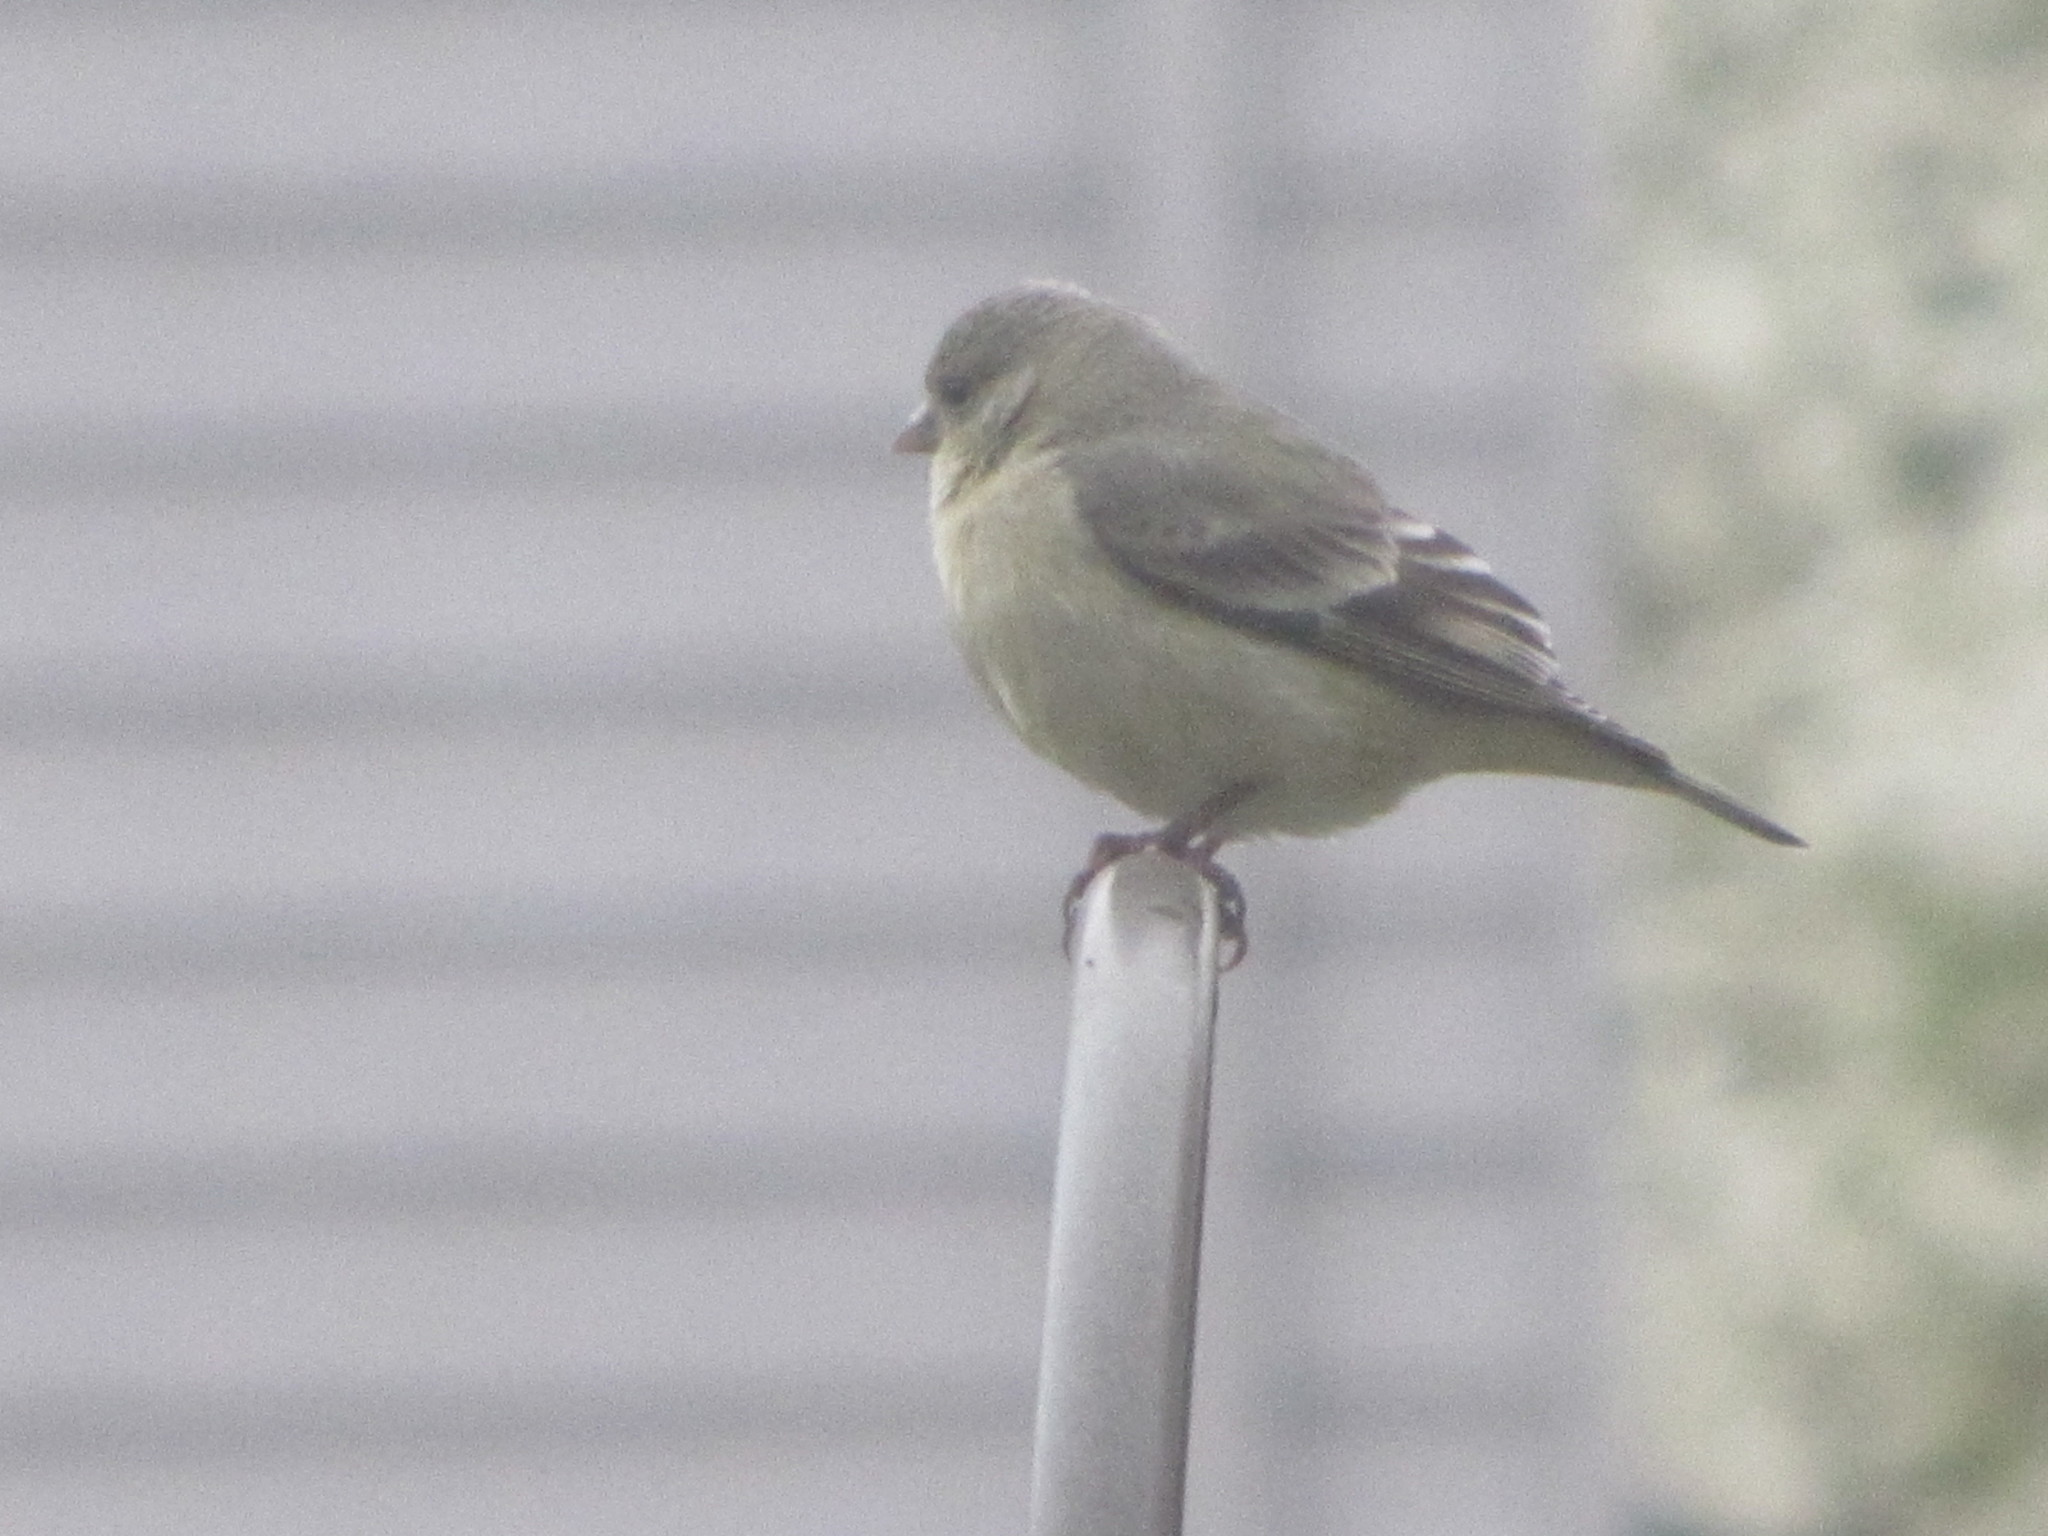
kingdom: Animalia
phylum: Chordata
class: Aves
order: Passeriformes
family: Fringillidae
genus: Spinus
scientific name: Spinus psaltria
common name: Lesser goldfinch
